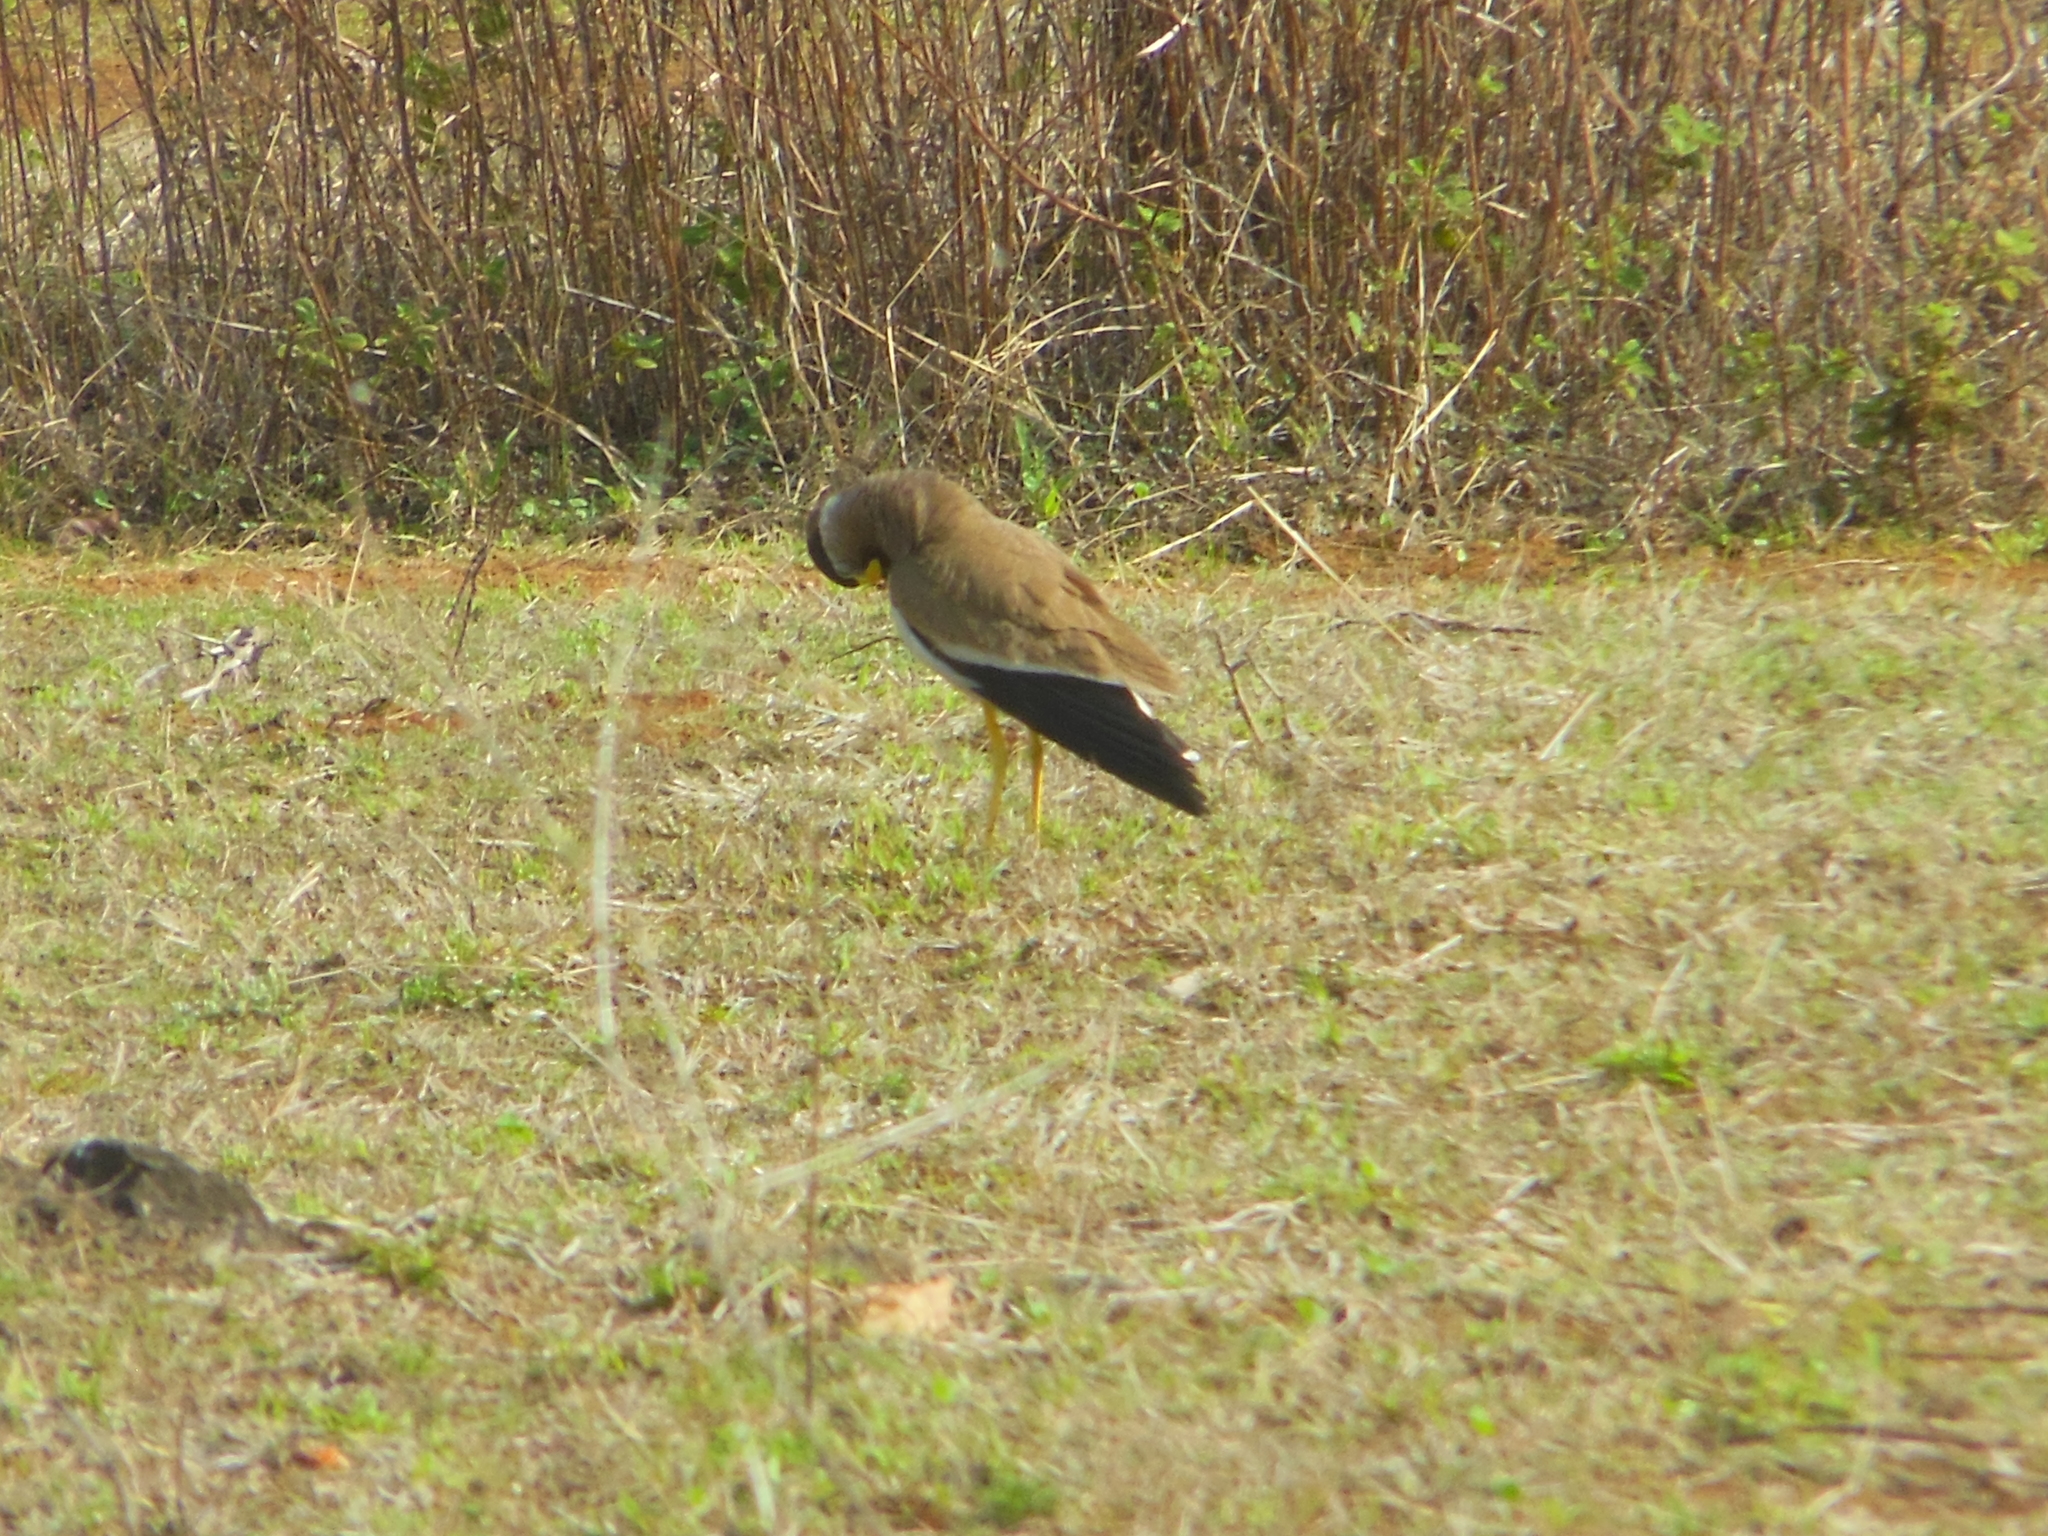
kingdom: Animalia
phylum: Chordata
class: Aves
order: Charadriiformes
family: Charadriidae
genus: Vanellus
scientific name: Vanellus malabaricus
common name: Yellow-wattled lapwing
